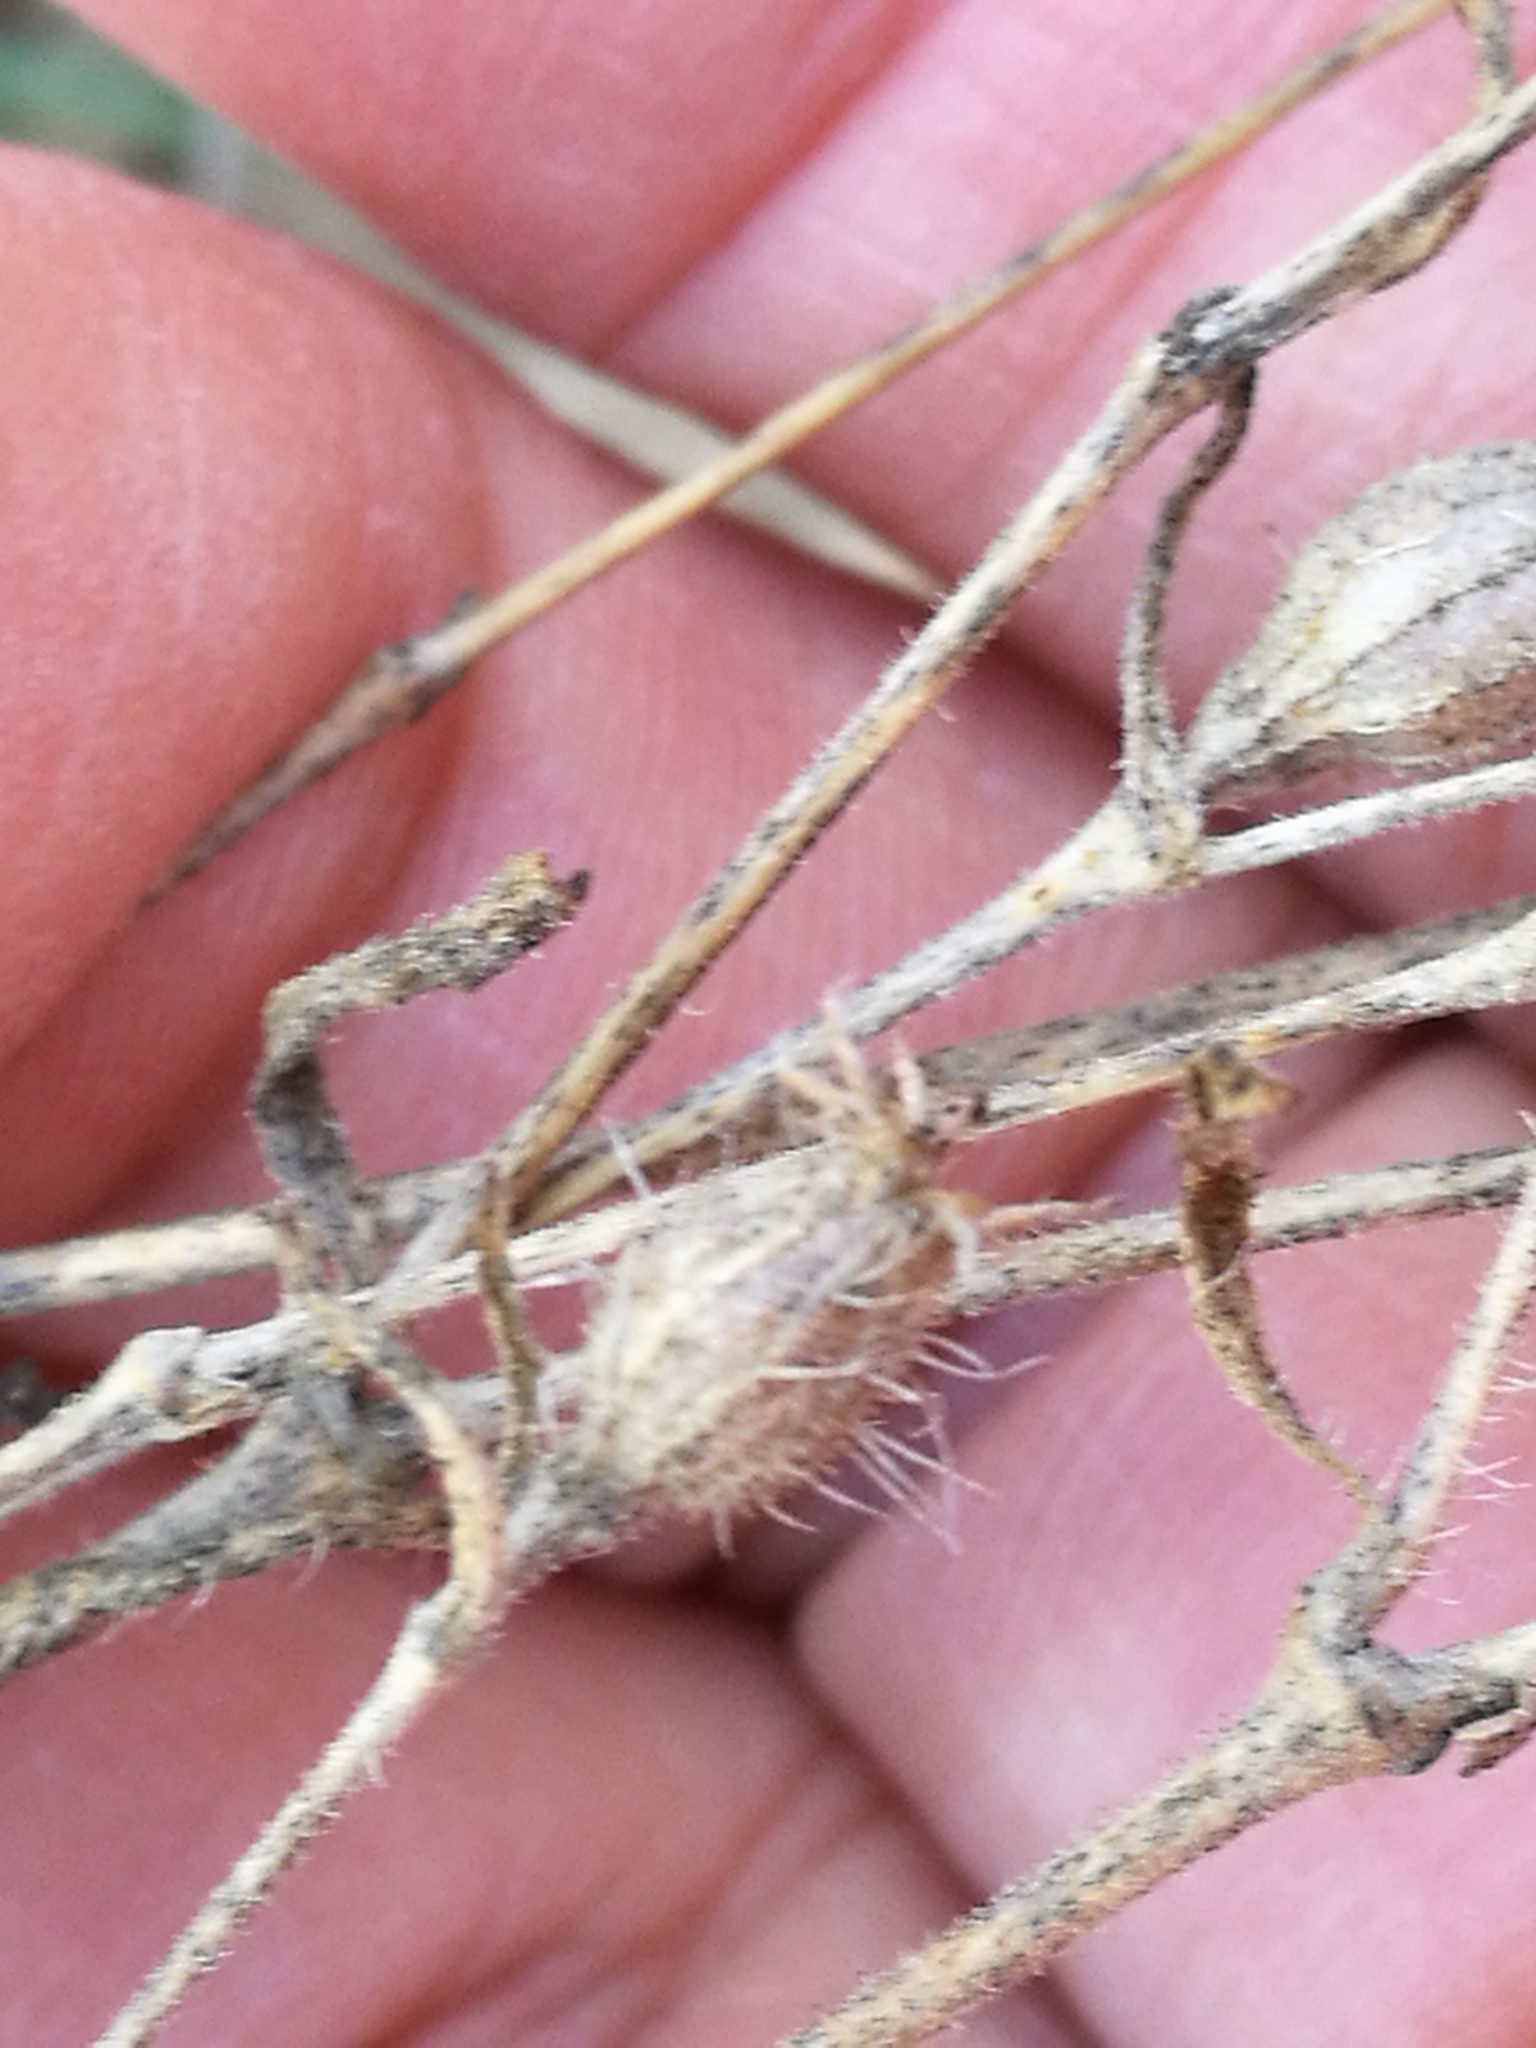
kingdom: Plantae
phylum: Tracheophyta
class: Magnoliopsida
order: Caryophyllales
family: Caryophyllaceae
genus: Silene
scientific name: Silene gallica
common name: Small-flowered catchfly
